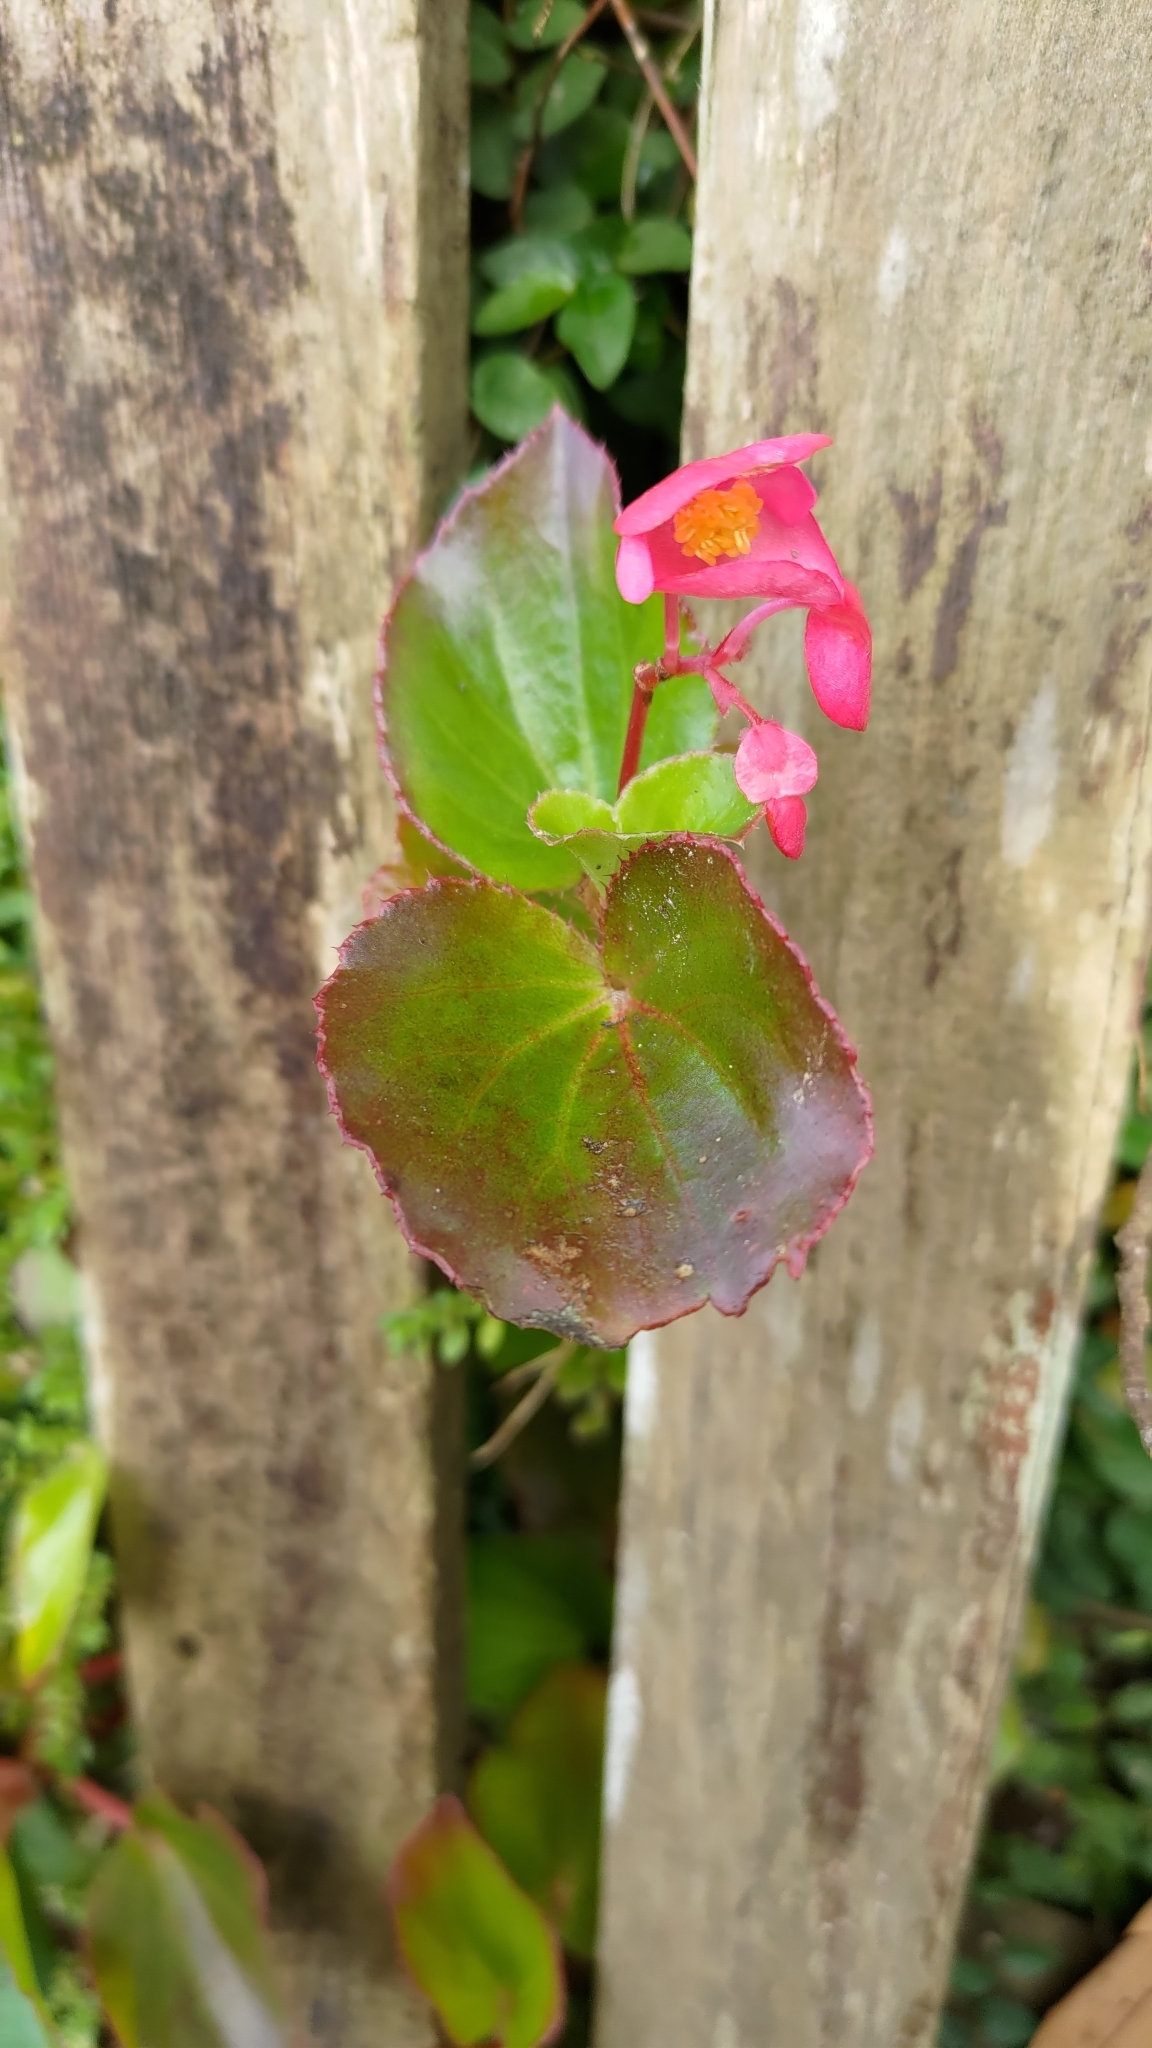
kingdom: Plantae
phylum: Tracheophyta
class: Magnoliopsida
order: Cucurbitales
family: Begoniaceae
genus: Begonia
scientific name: Begonia semperflorens-cultorum
